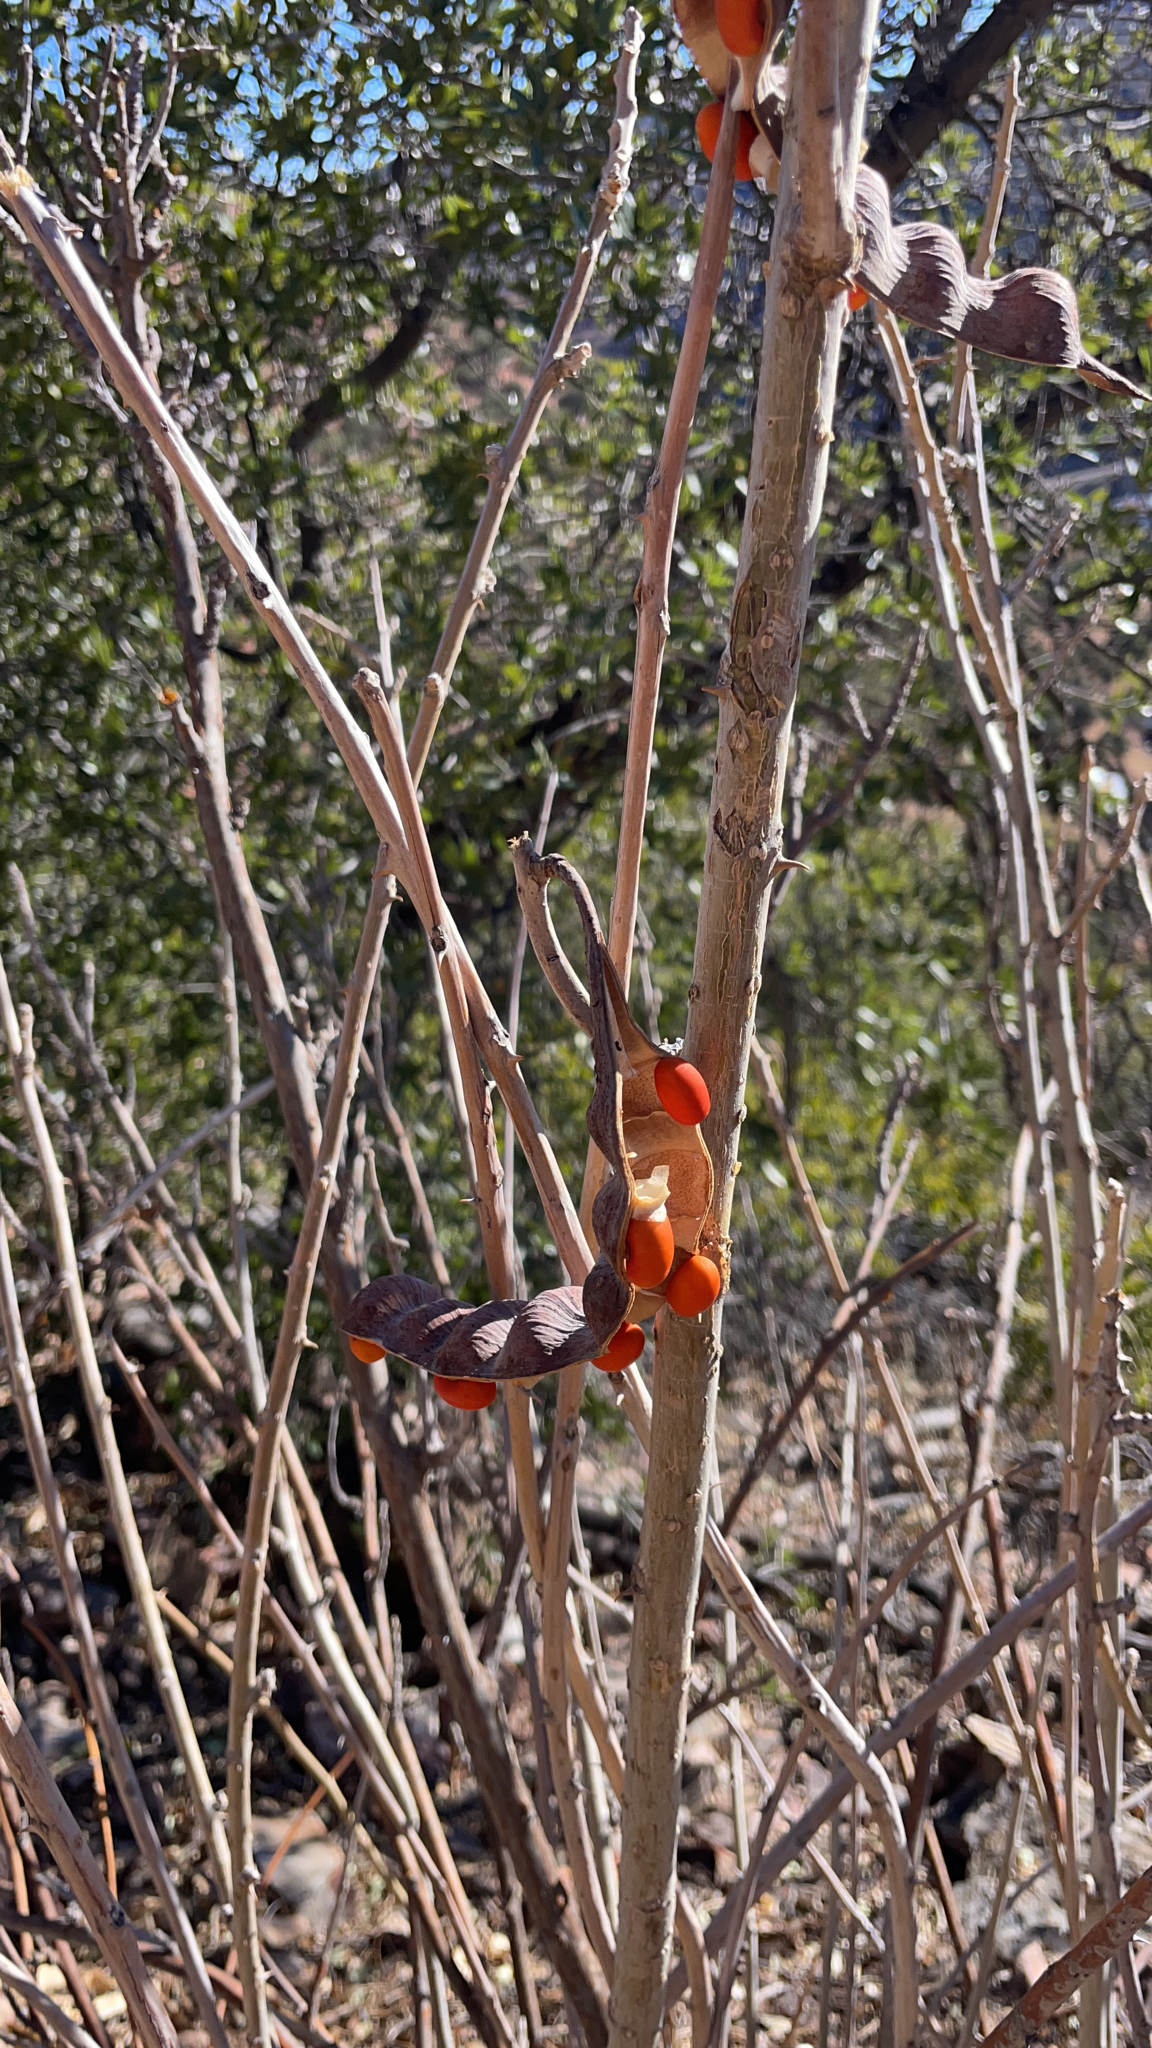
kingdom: Plantae
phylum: Tracheophyta
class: Magnoliopsida
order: Fabales
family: Fabaceae
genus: Erythrina
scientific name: Erythrina flabelliformis
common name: Chilicote
